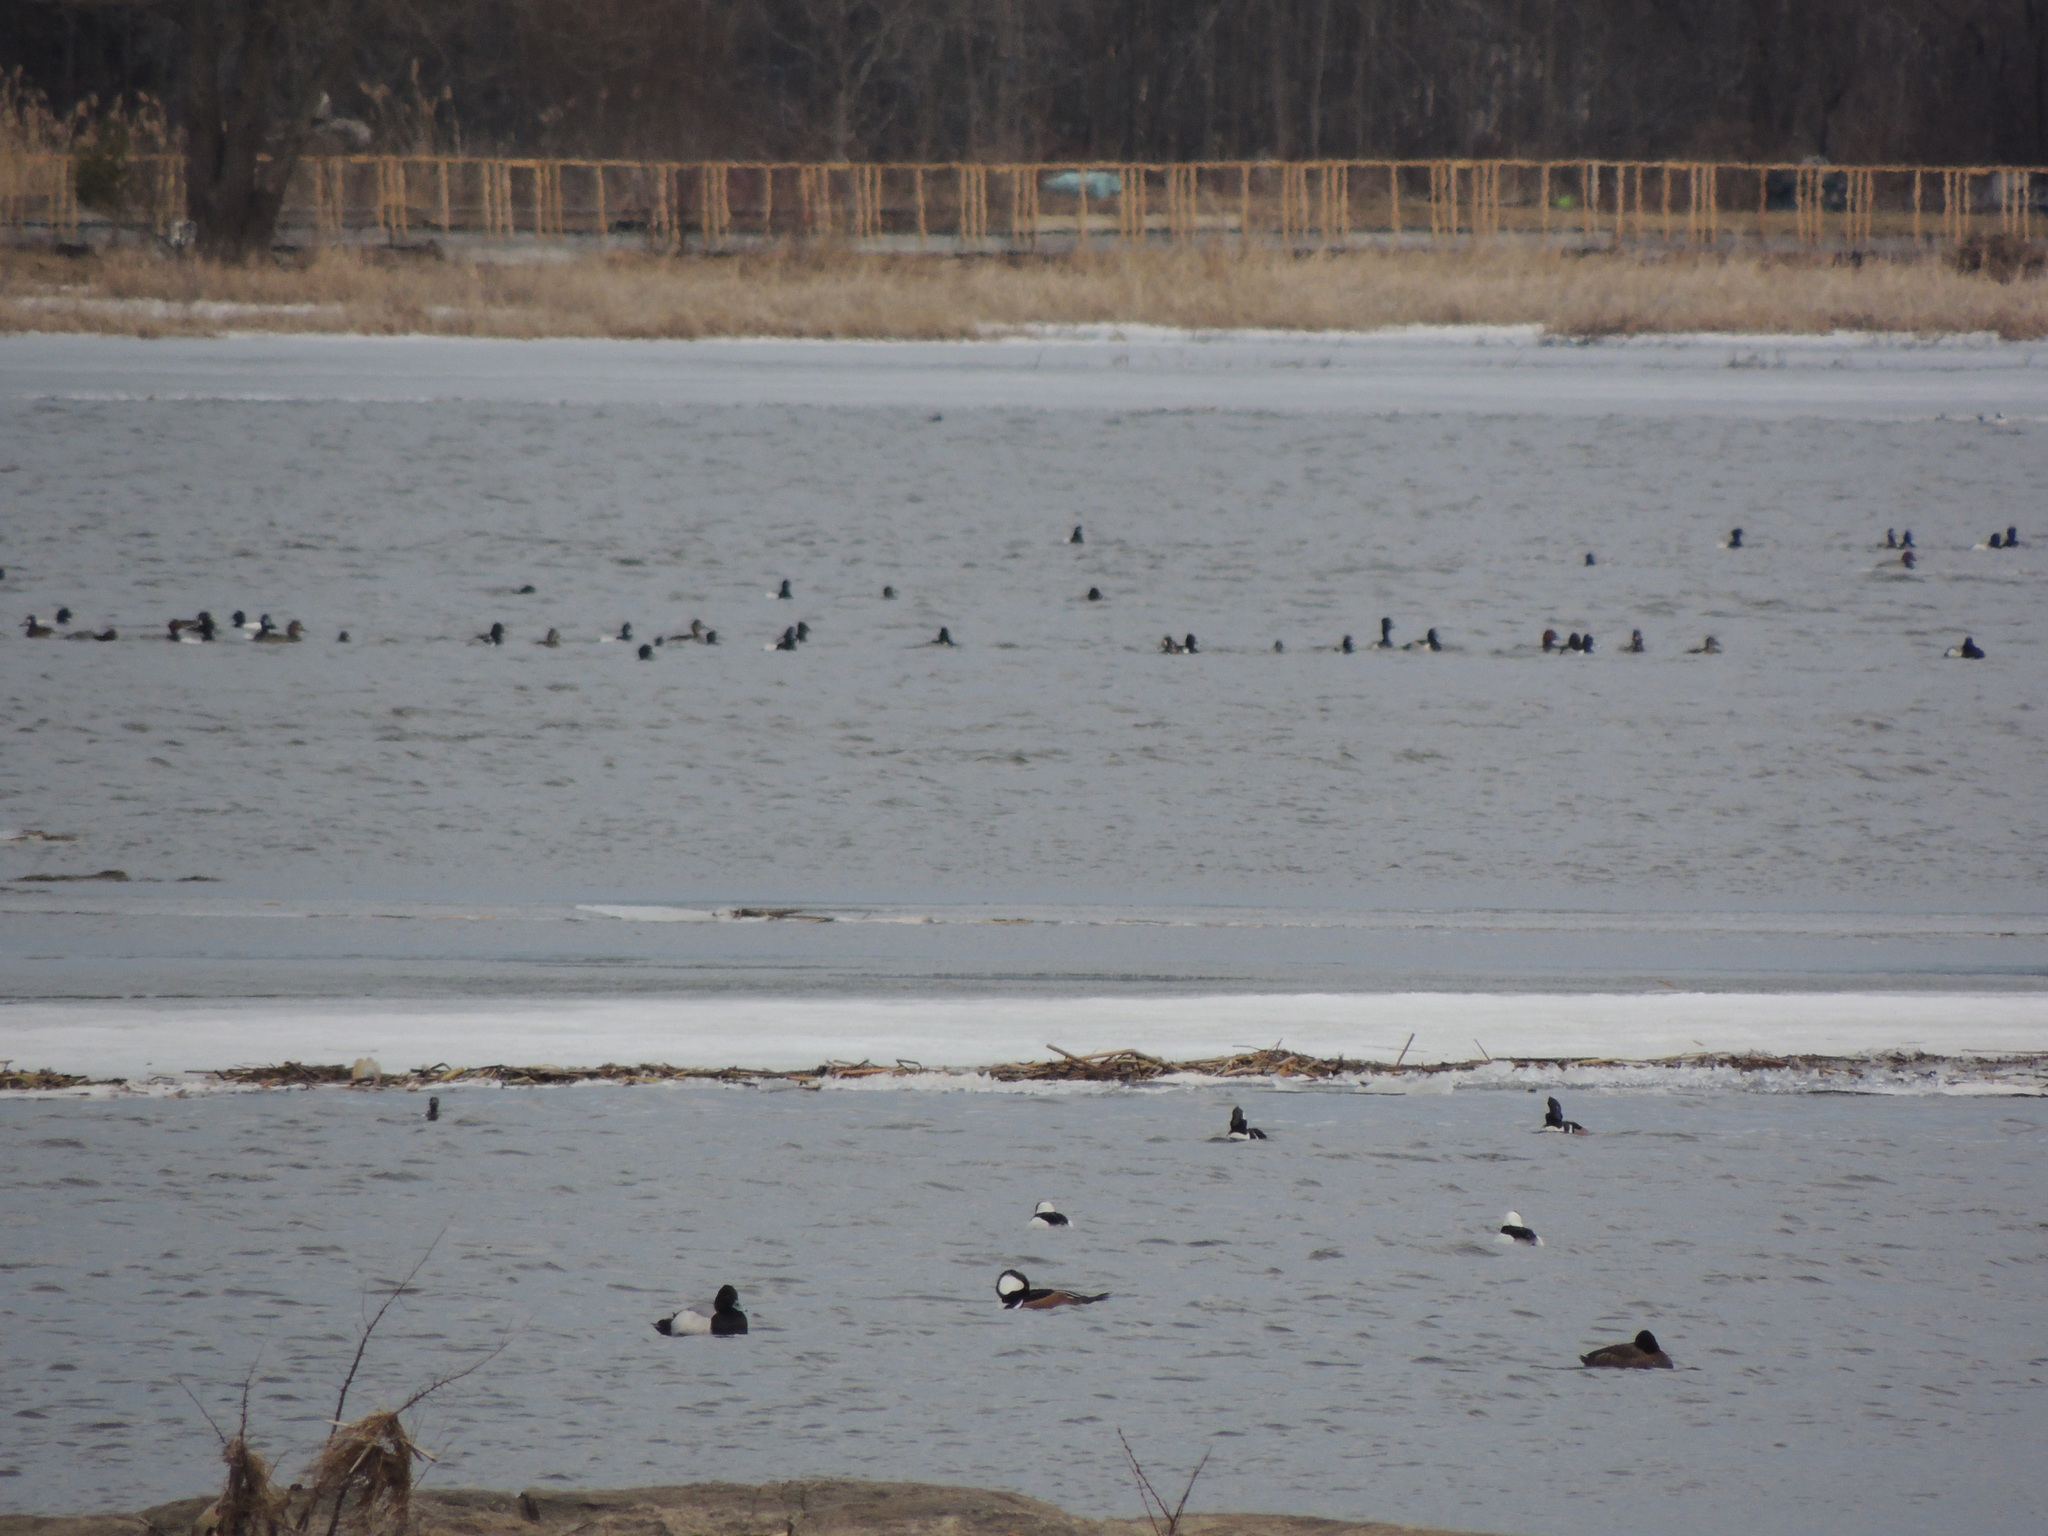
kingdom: Animalia
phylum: Chordata
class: Aves
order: Anseriformes
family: Anatidae
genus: Lophodytes
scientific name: Lophodytes cucullatus
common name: Hooded merganser
